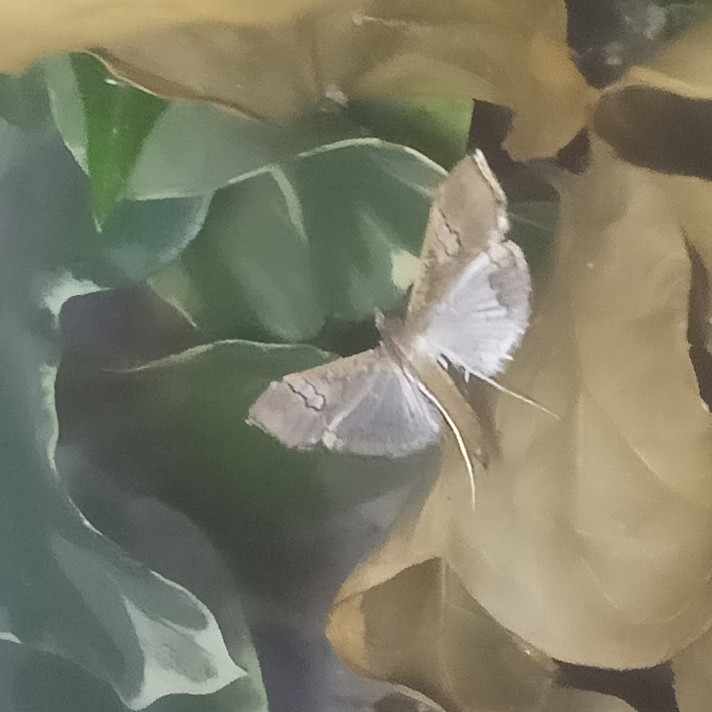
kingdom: Animalia
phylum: Arthropoda
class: Insecta
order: Lepidoptera
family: Crambidae
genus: Maruca
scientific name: Maruca vitrata
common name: Maruca pod borer
